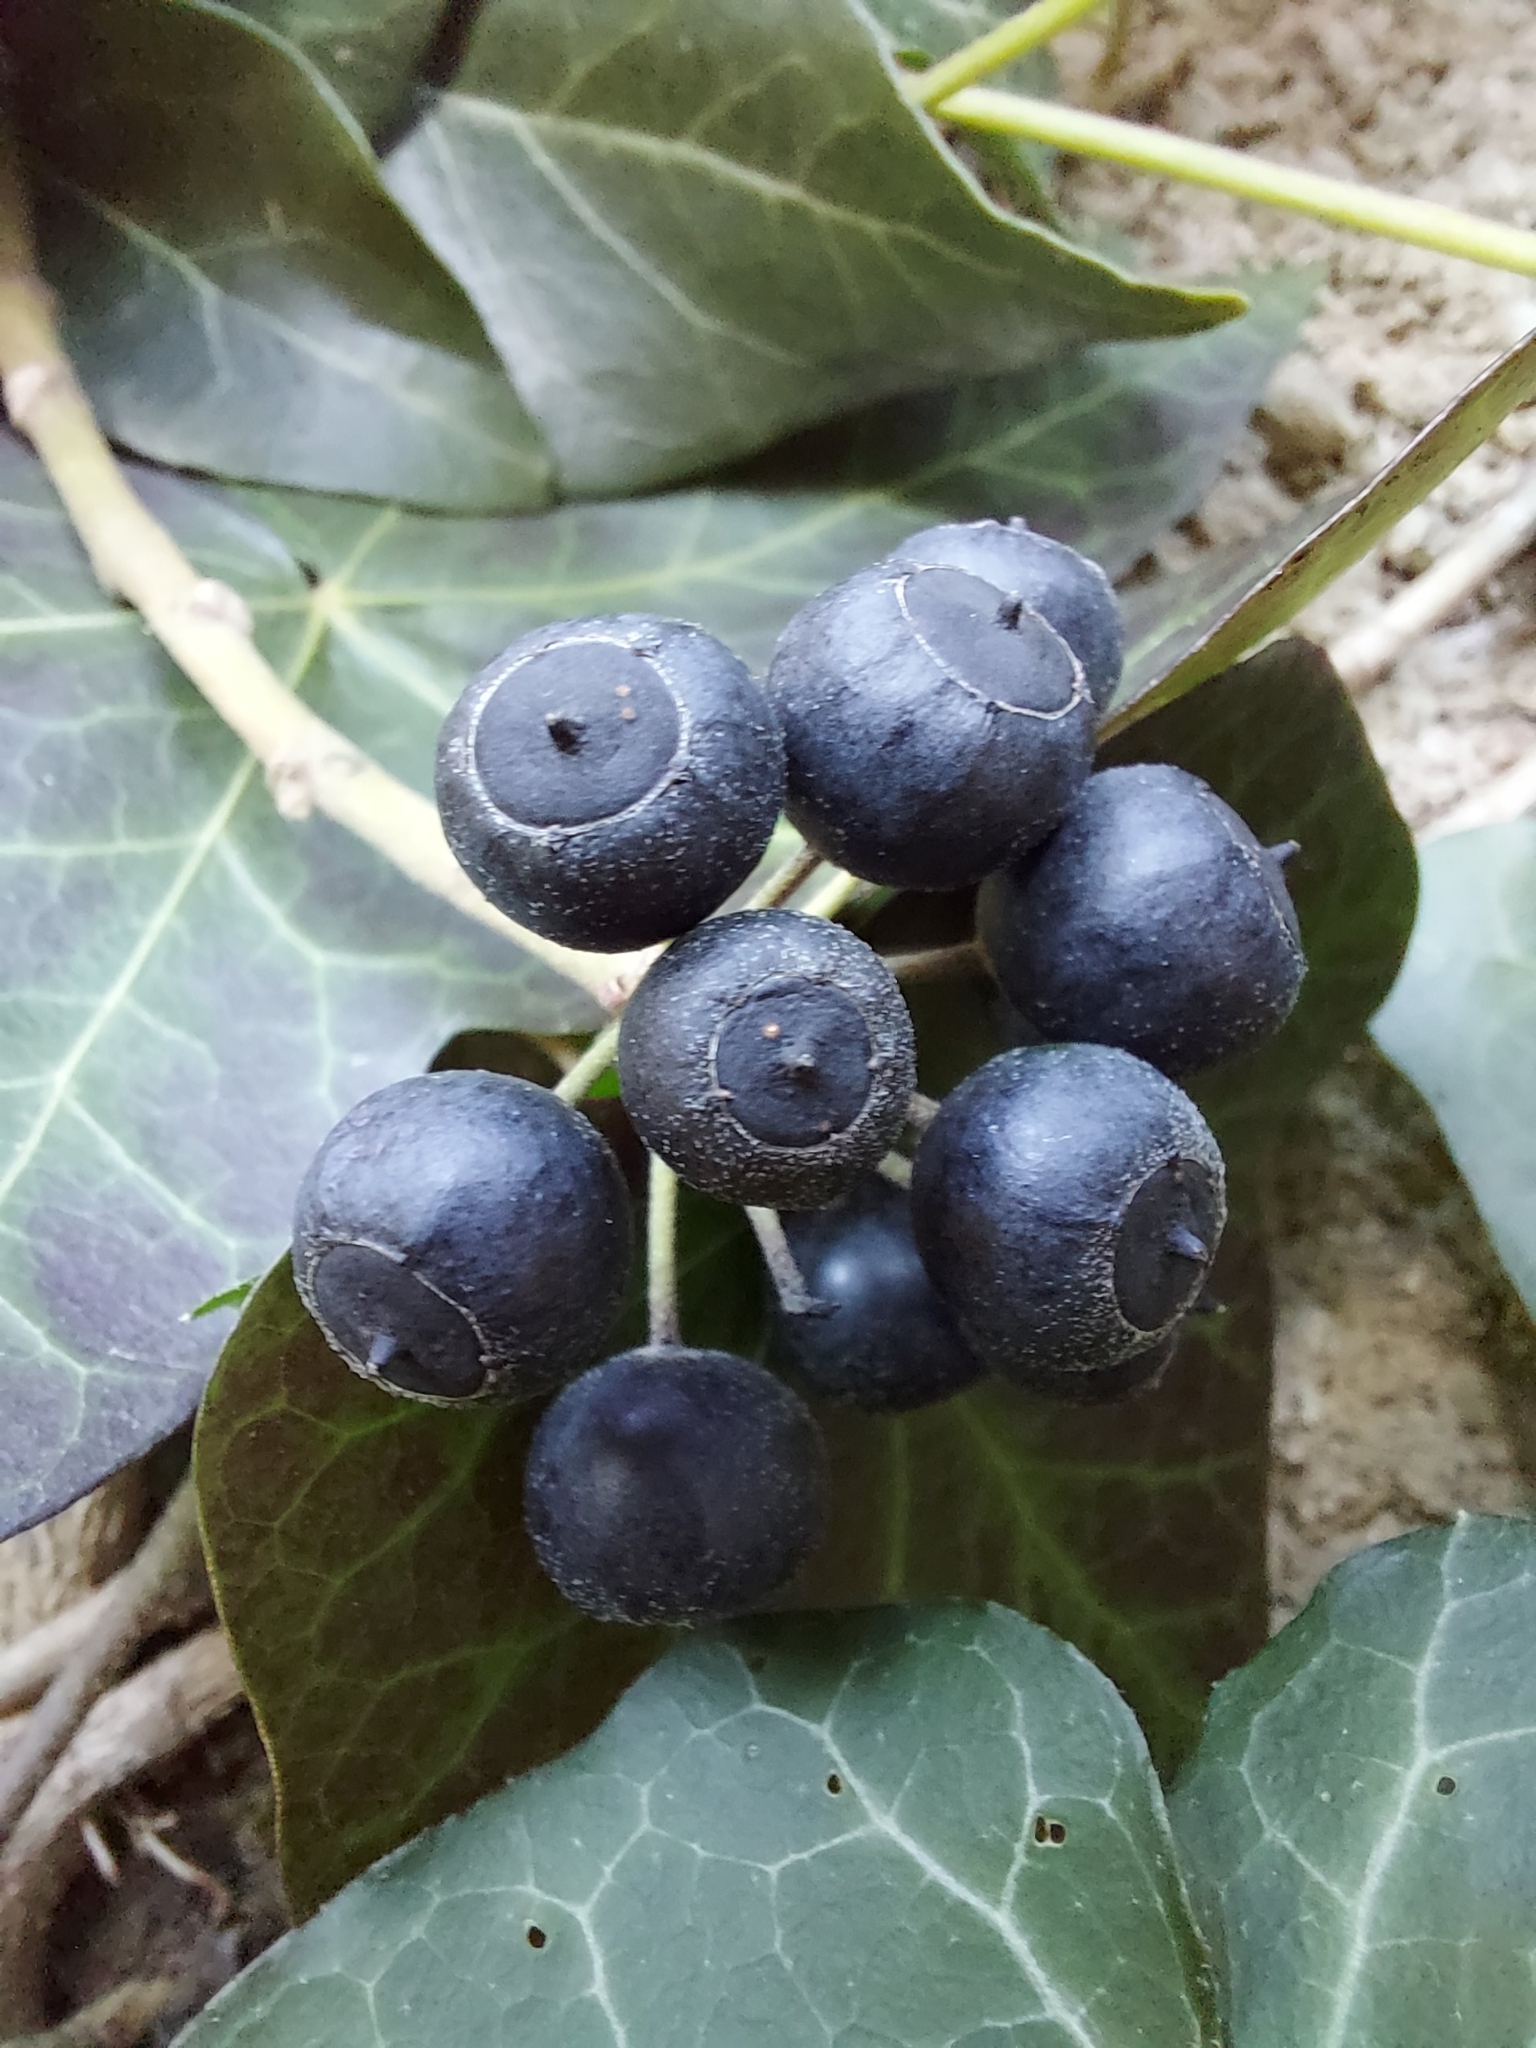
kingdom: Plantae
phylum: Tracheophyta
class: Magnoliopsida
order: Apiales
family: Araliaceae
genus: Hedera
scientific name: Hedera helix
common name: Ivy
